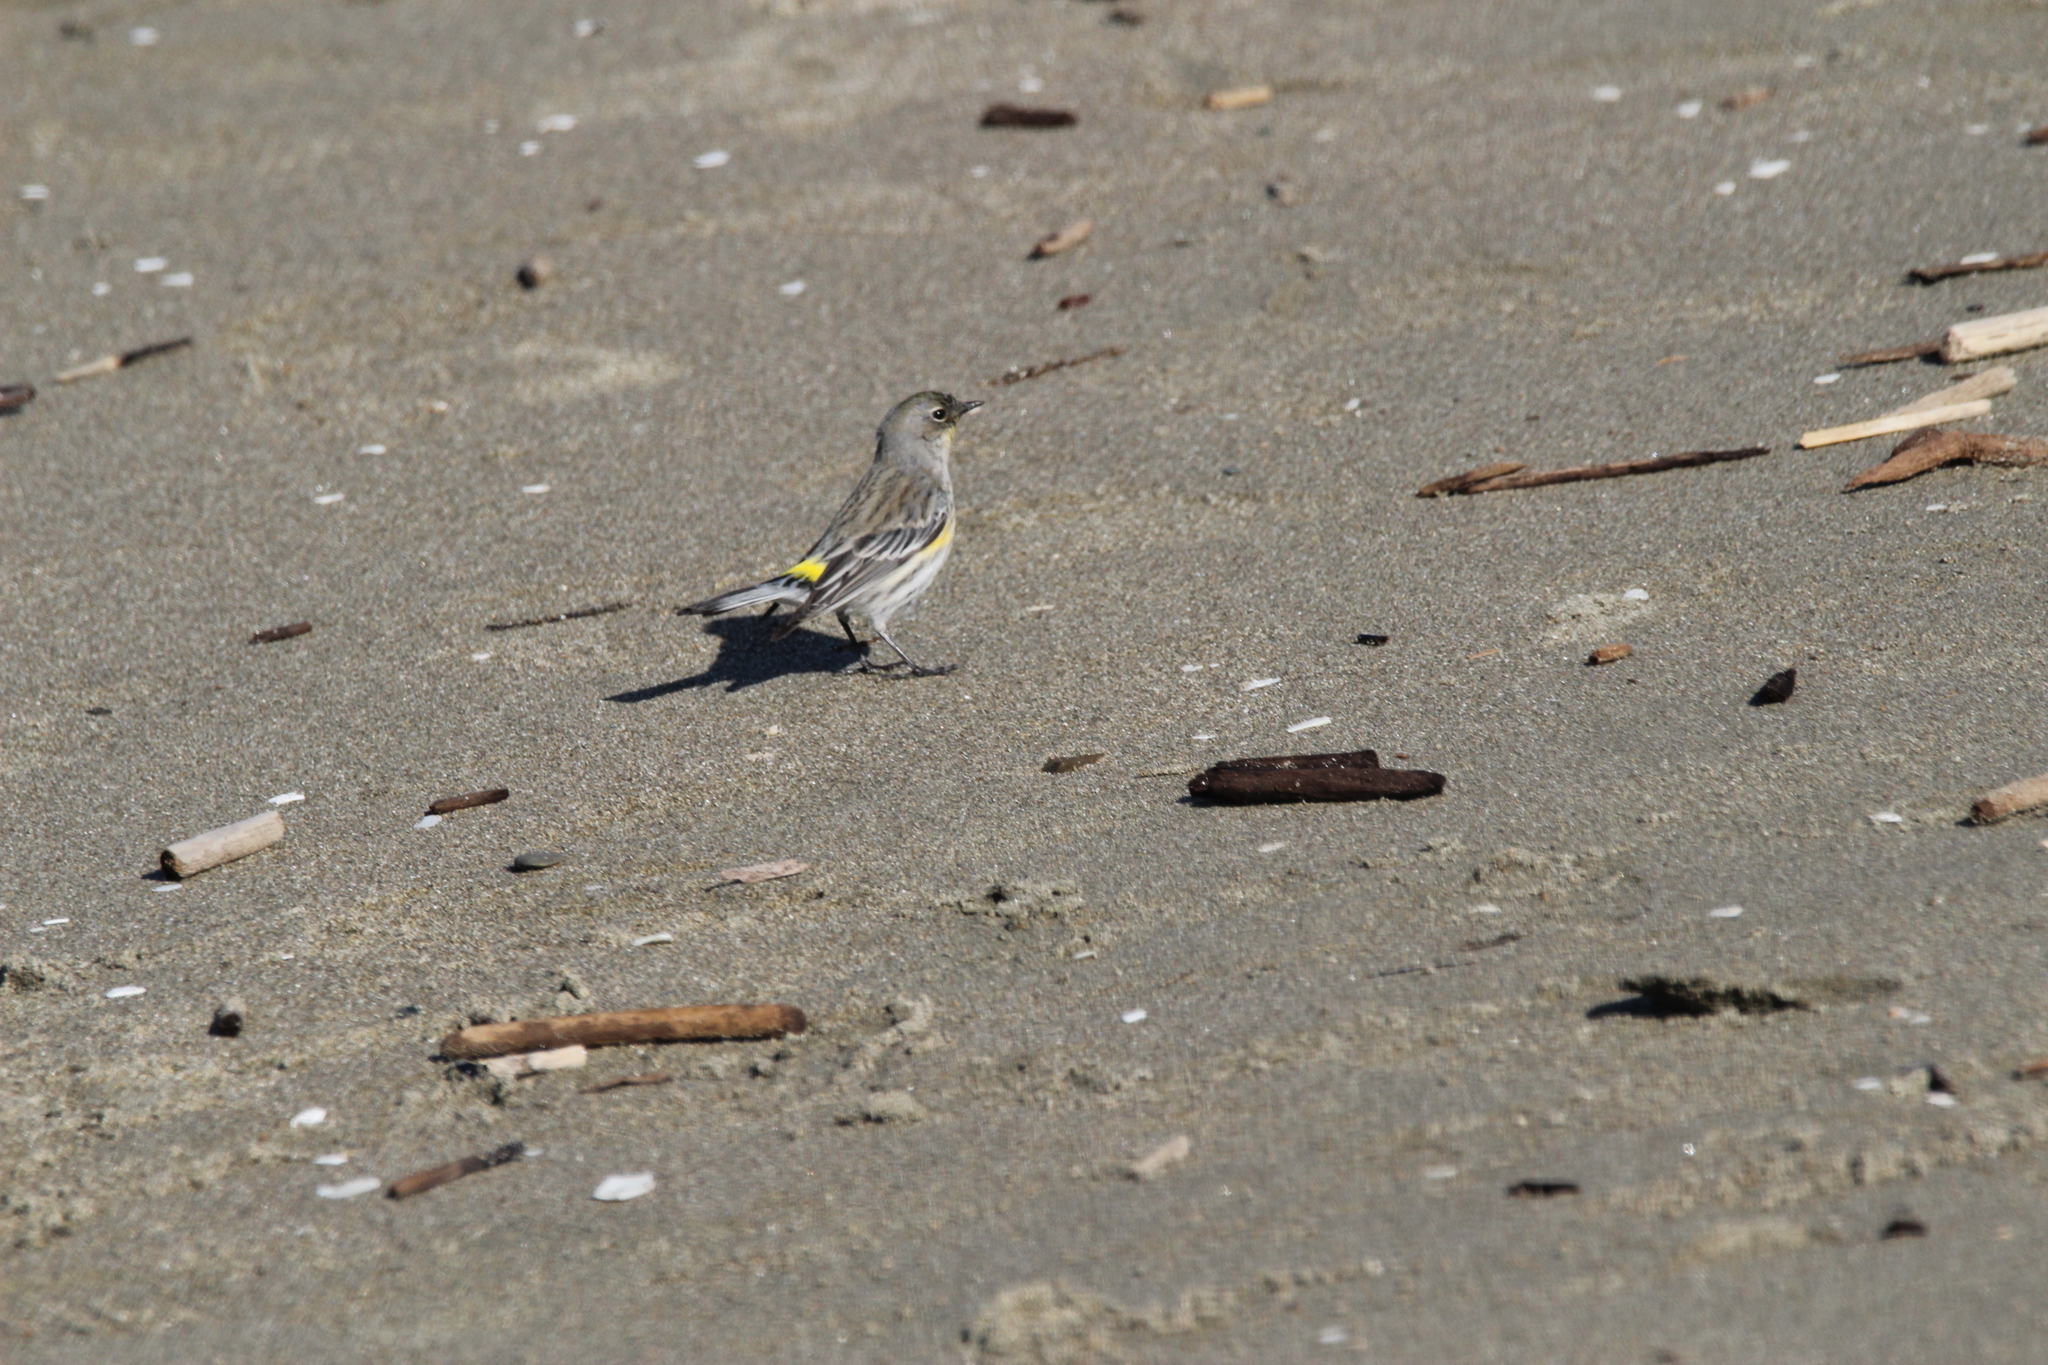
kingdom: Animalia
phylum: Chordata
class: Aves
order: Passeriformes
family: Parulidae
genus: Setophaga
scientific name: Setophaga coronata
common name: Myrtle warbler
